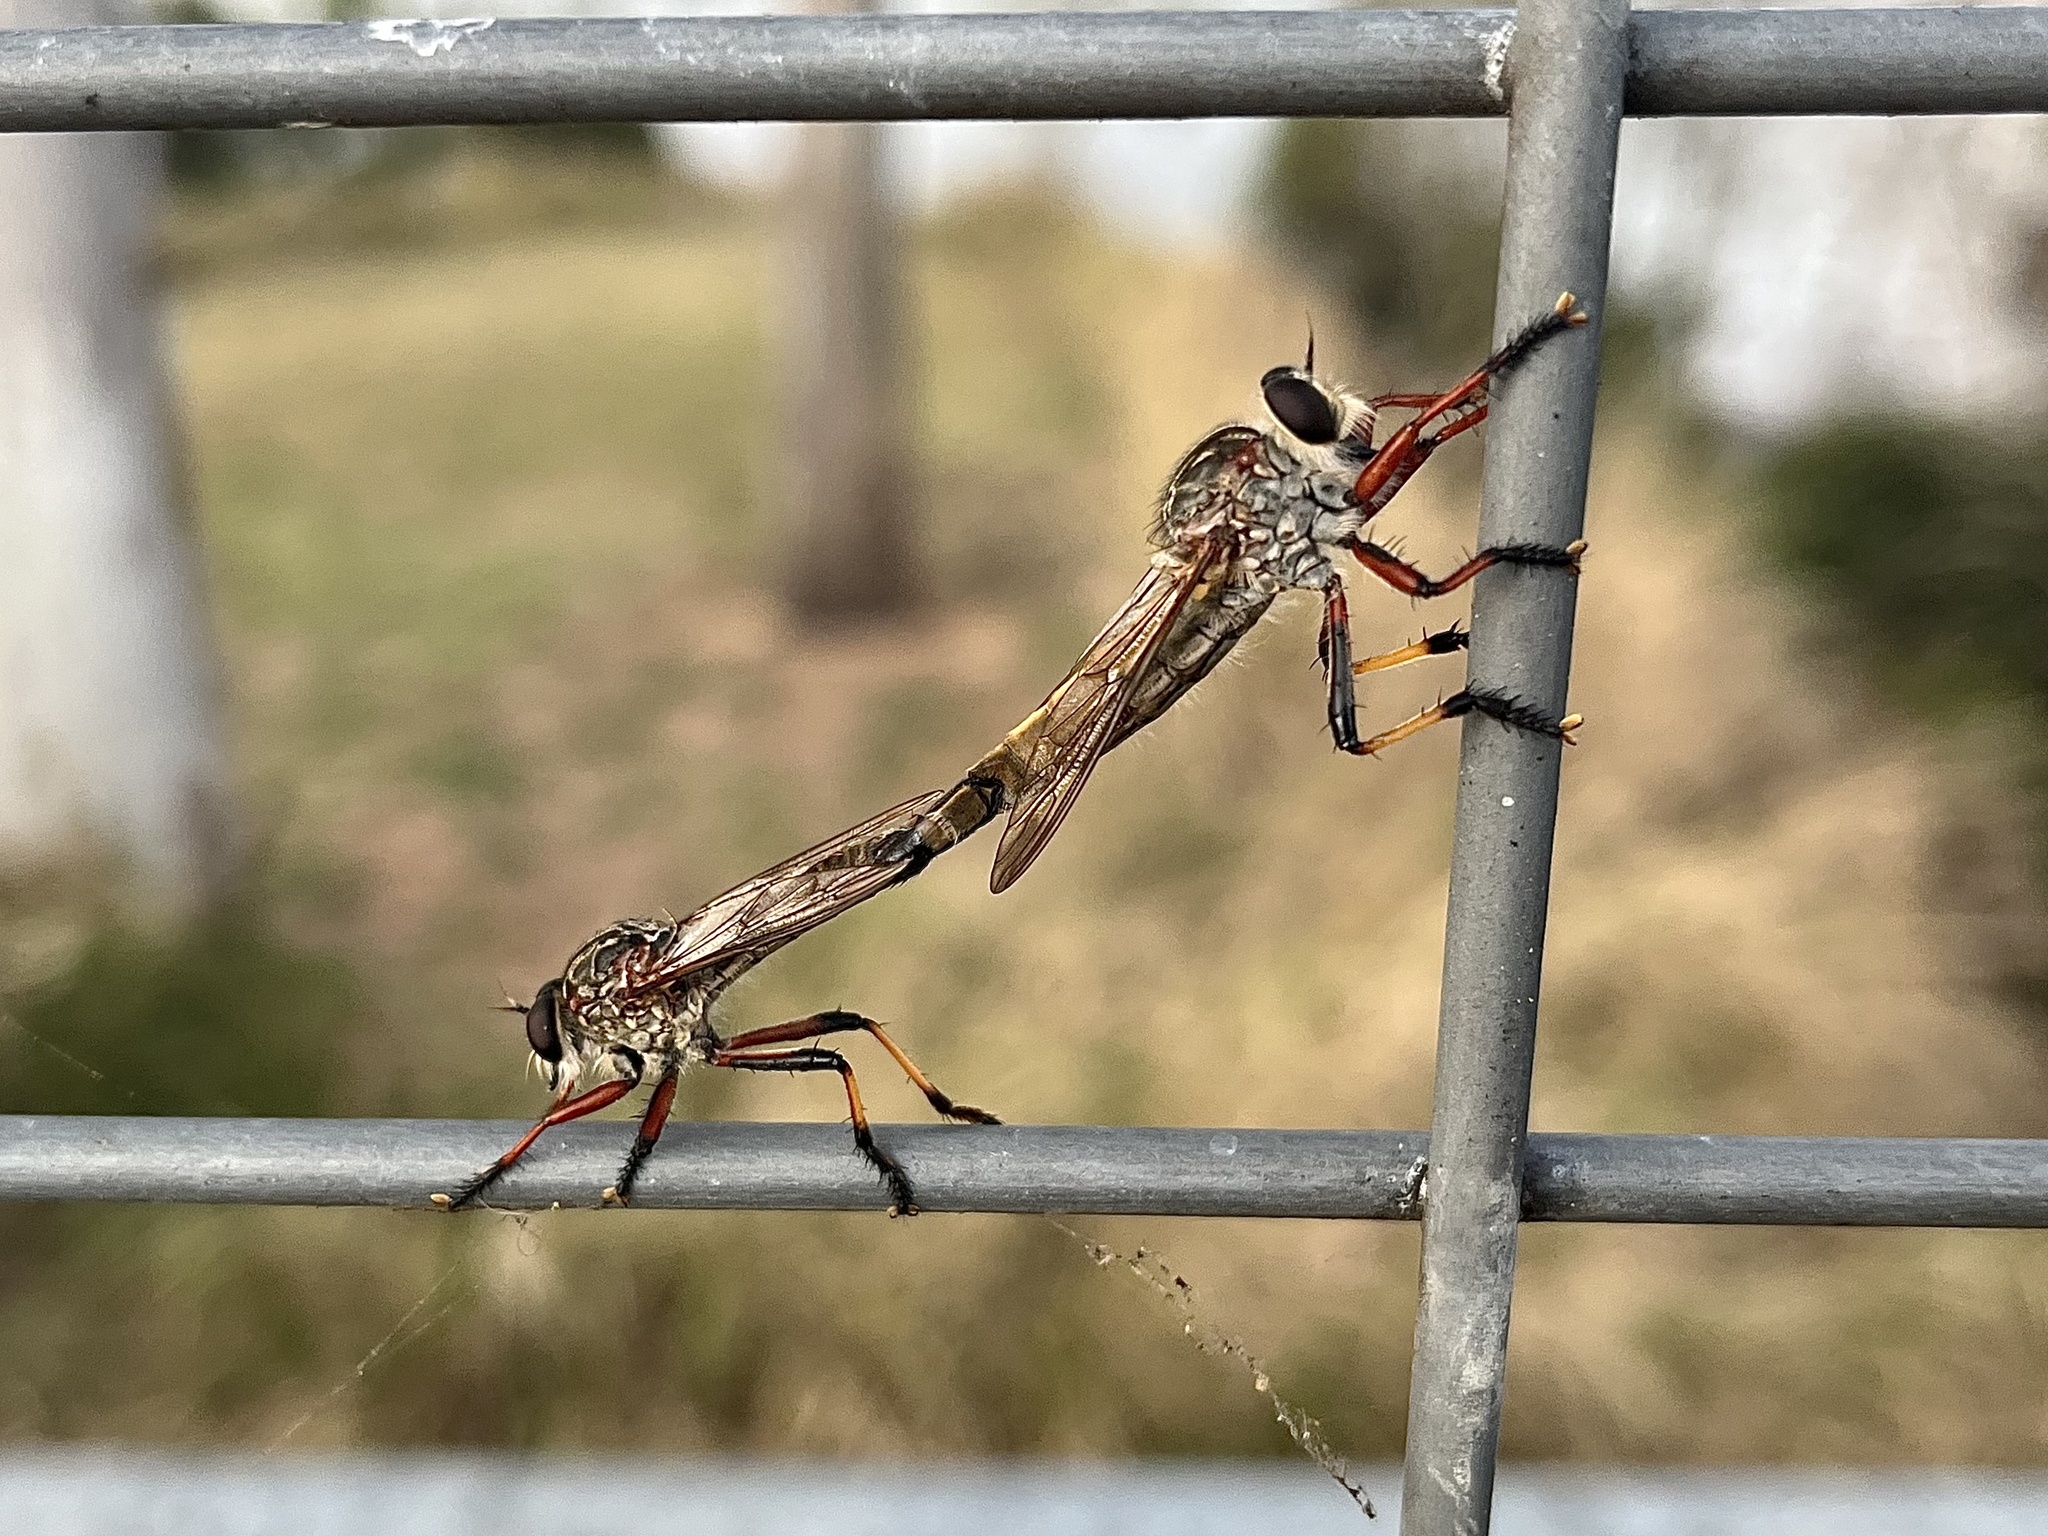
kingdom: Animalia
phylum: Arthropoda
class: Insecta
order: Diptera
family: Asilidae
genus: Dolopus
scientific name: Dolopus simulans
